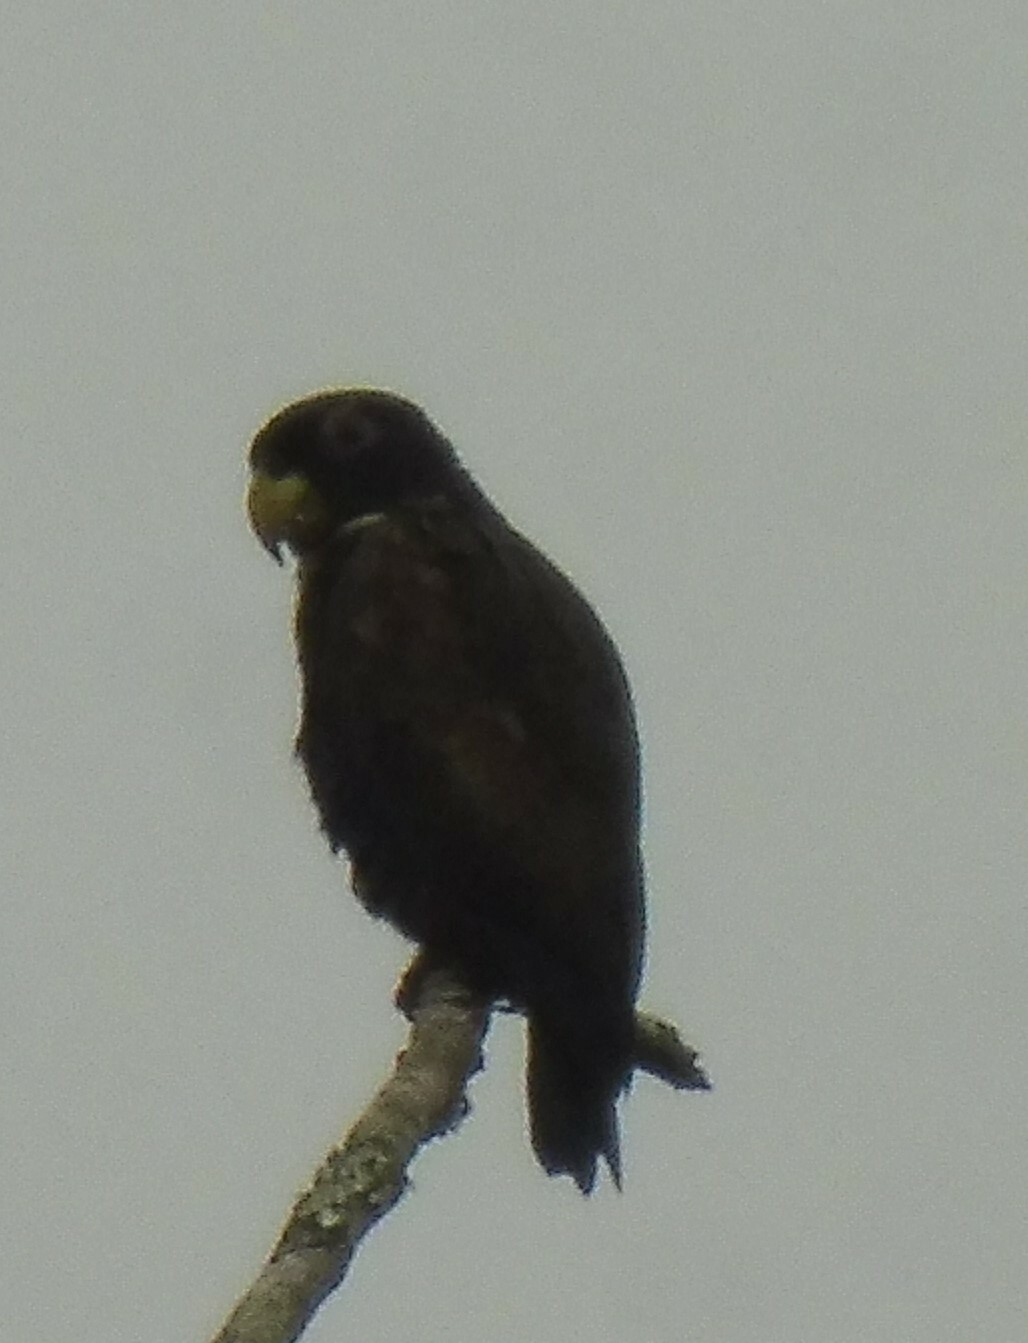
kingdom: Animalia
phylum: Chordata
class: Aves
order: Psittaciformes
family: Psittacidae
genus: Pionus
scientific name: Pionus chalcopterus
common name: Bronze-winged parrot
